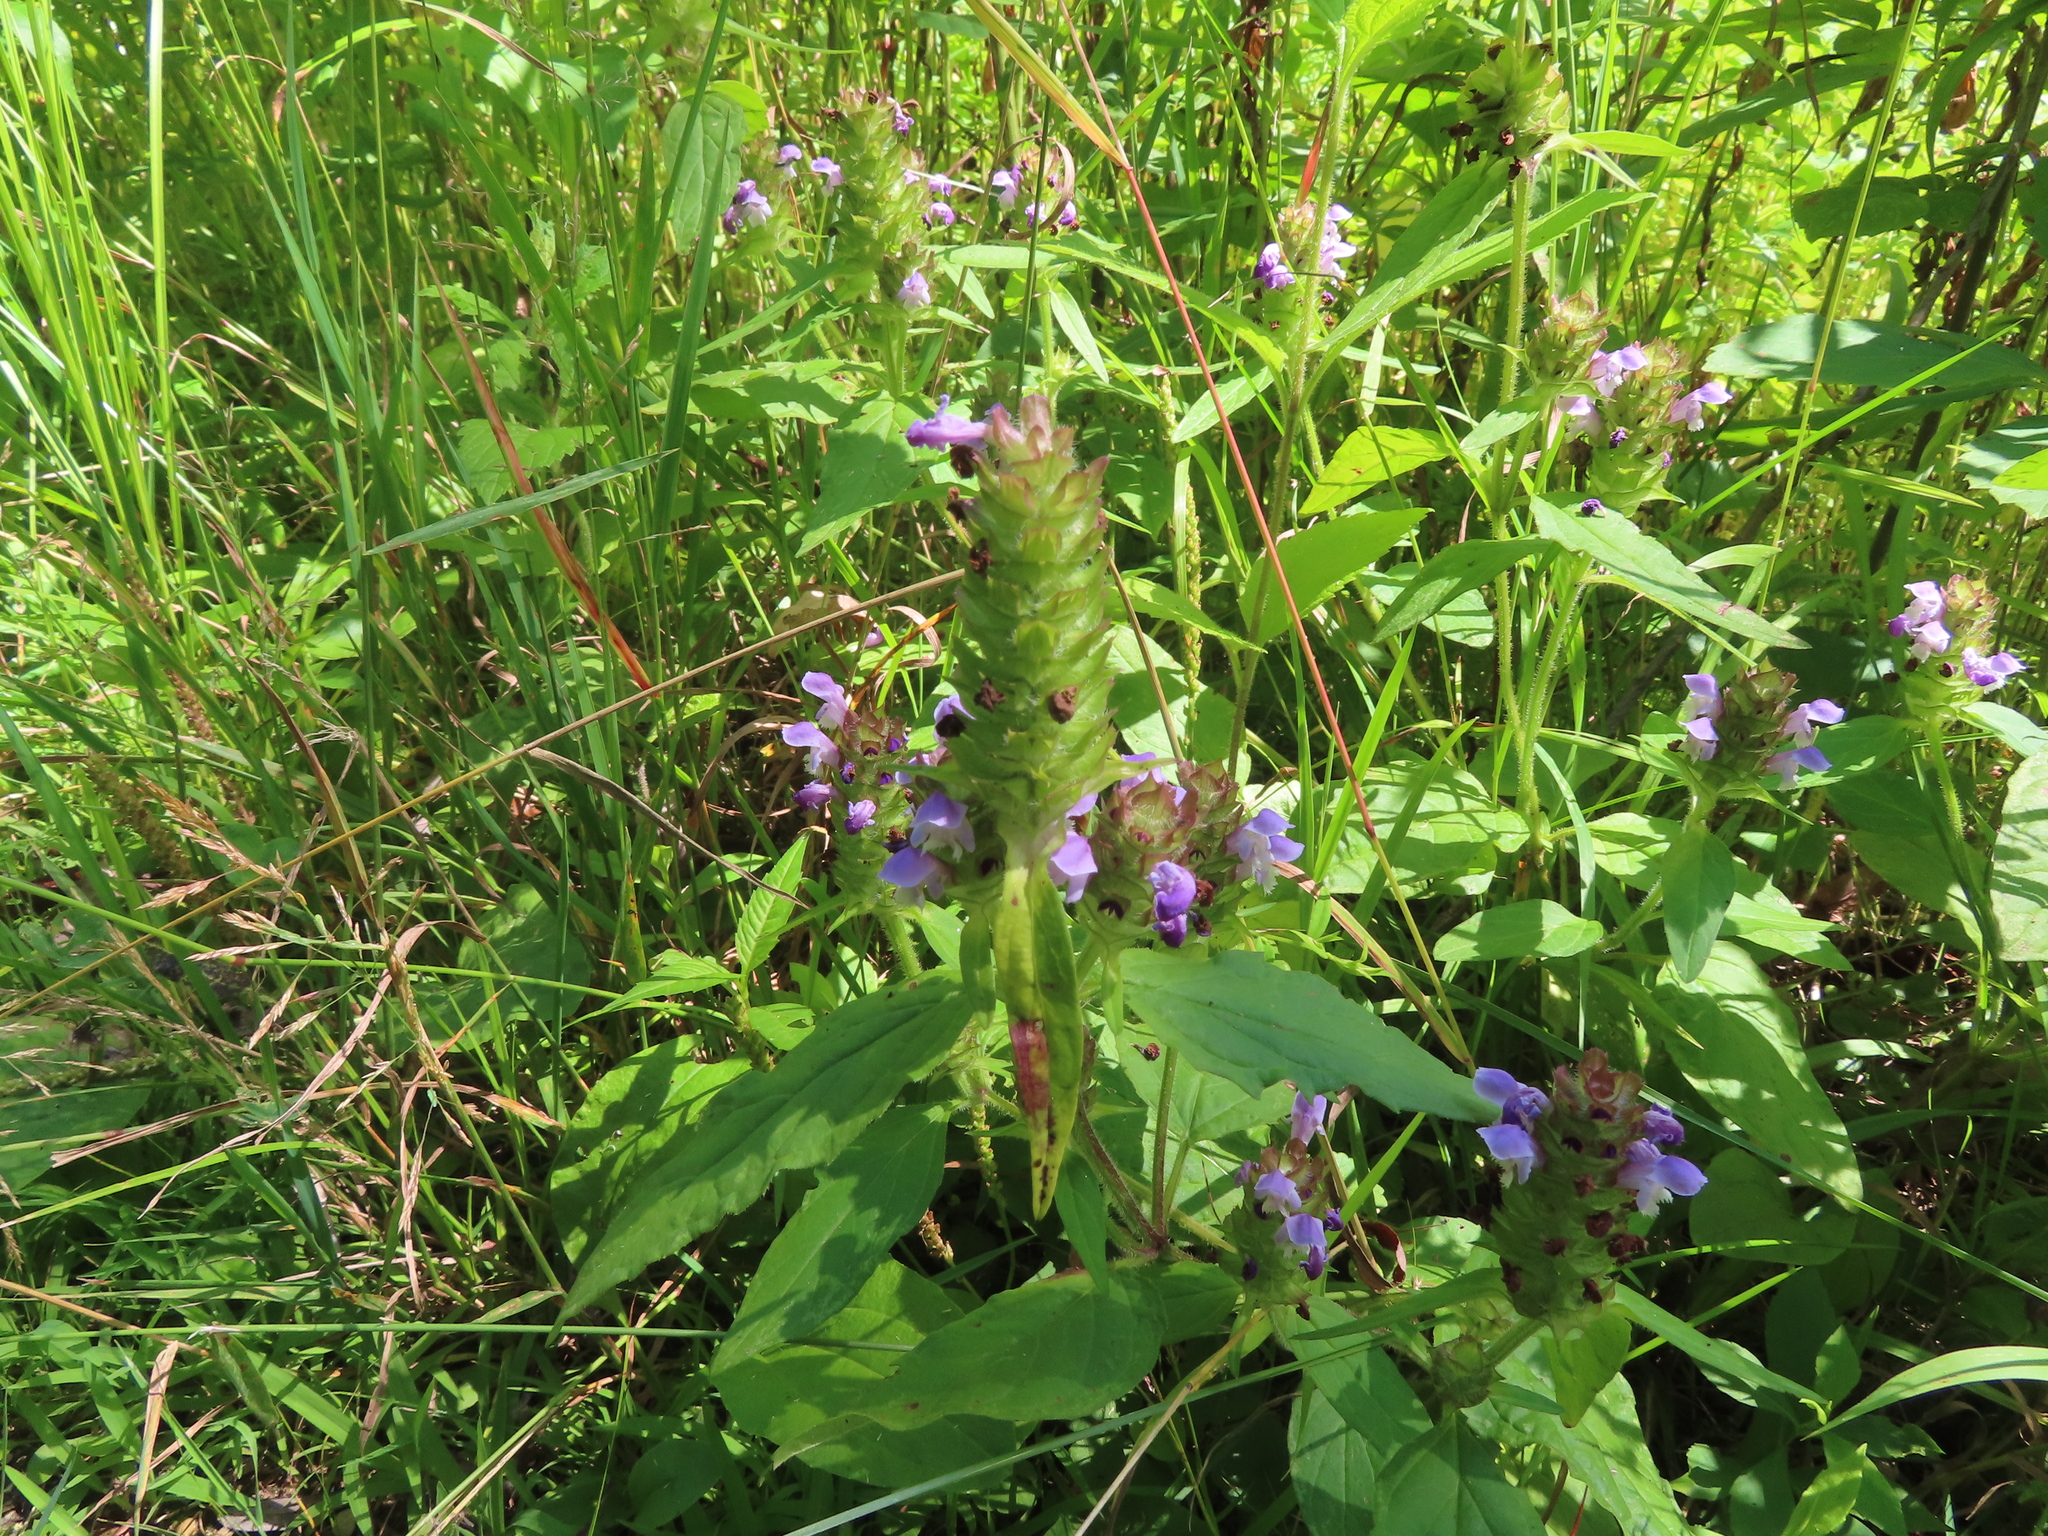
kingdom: Plantae
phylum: Tracheophyta
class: Magnoliopsida
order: Lamiales
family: Lamiaceae
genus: Prunella
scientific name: Prunella vulgaris
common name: Heal-all
